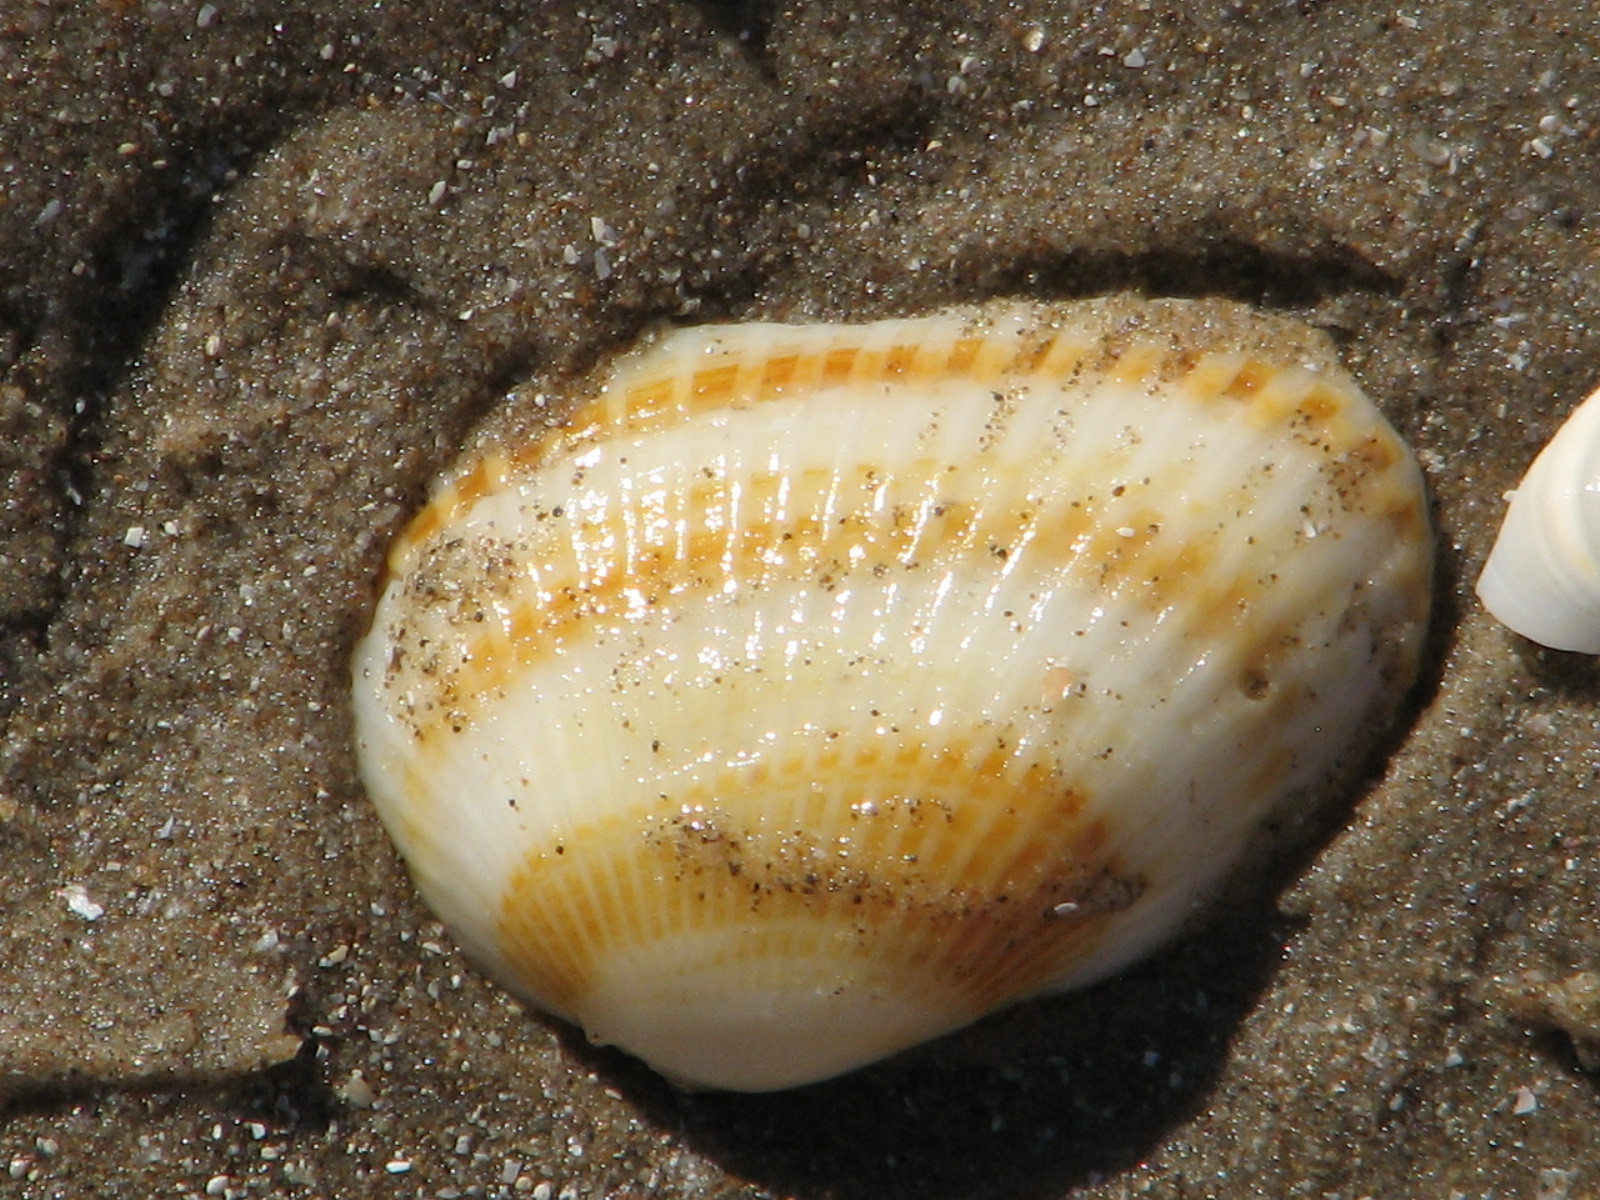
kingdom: Animalia
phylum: Mollusca
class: Bivalvia
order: Arcida
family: Arcidae
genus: Anadara
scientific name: Anadara transversa
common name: Transverse ark
